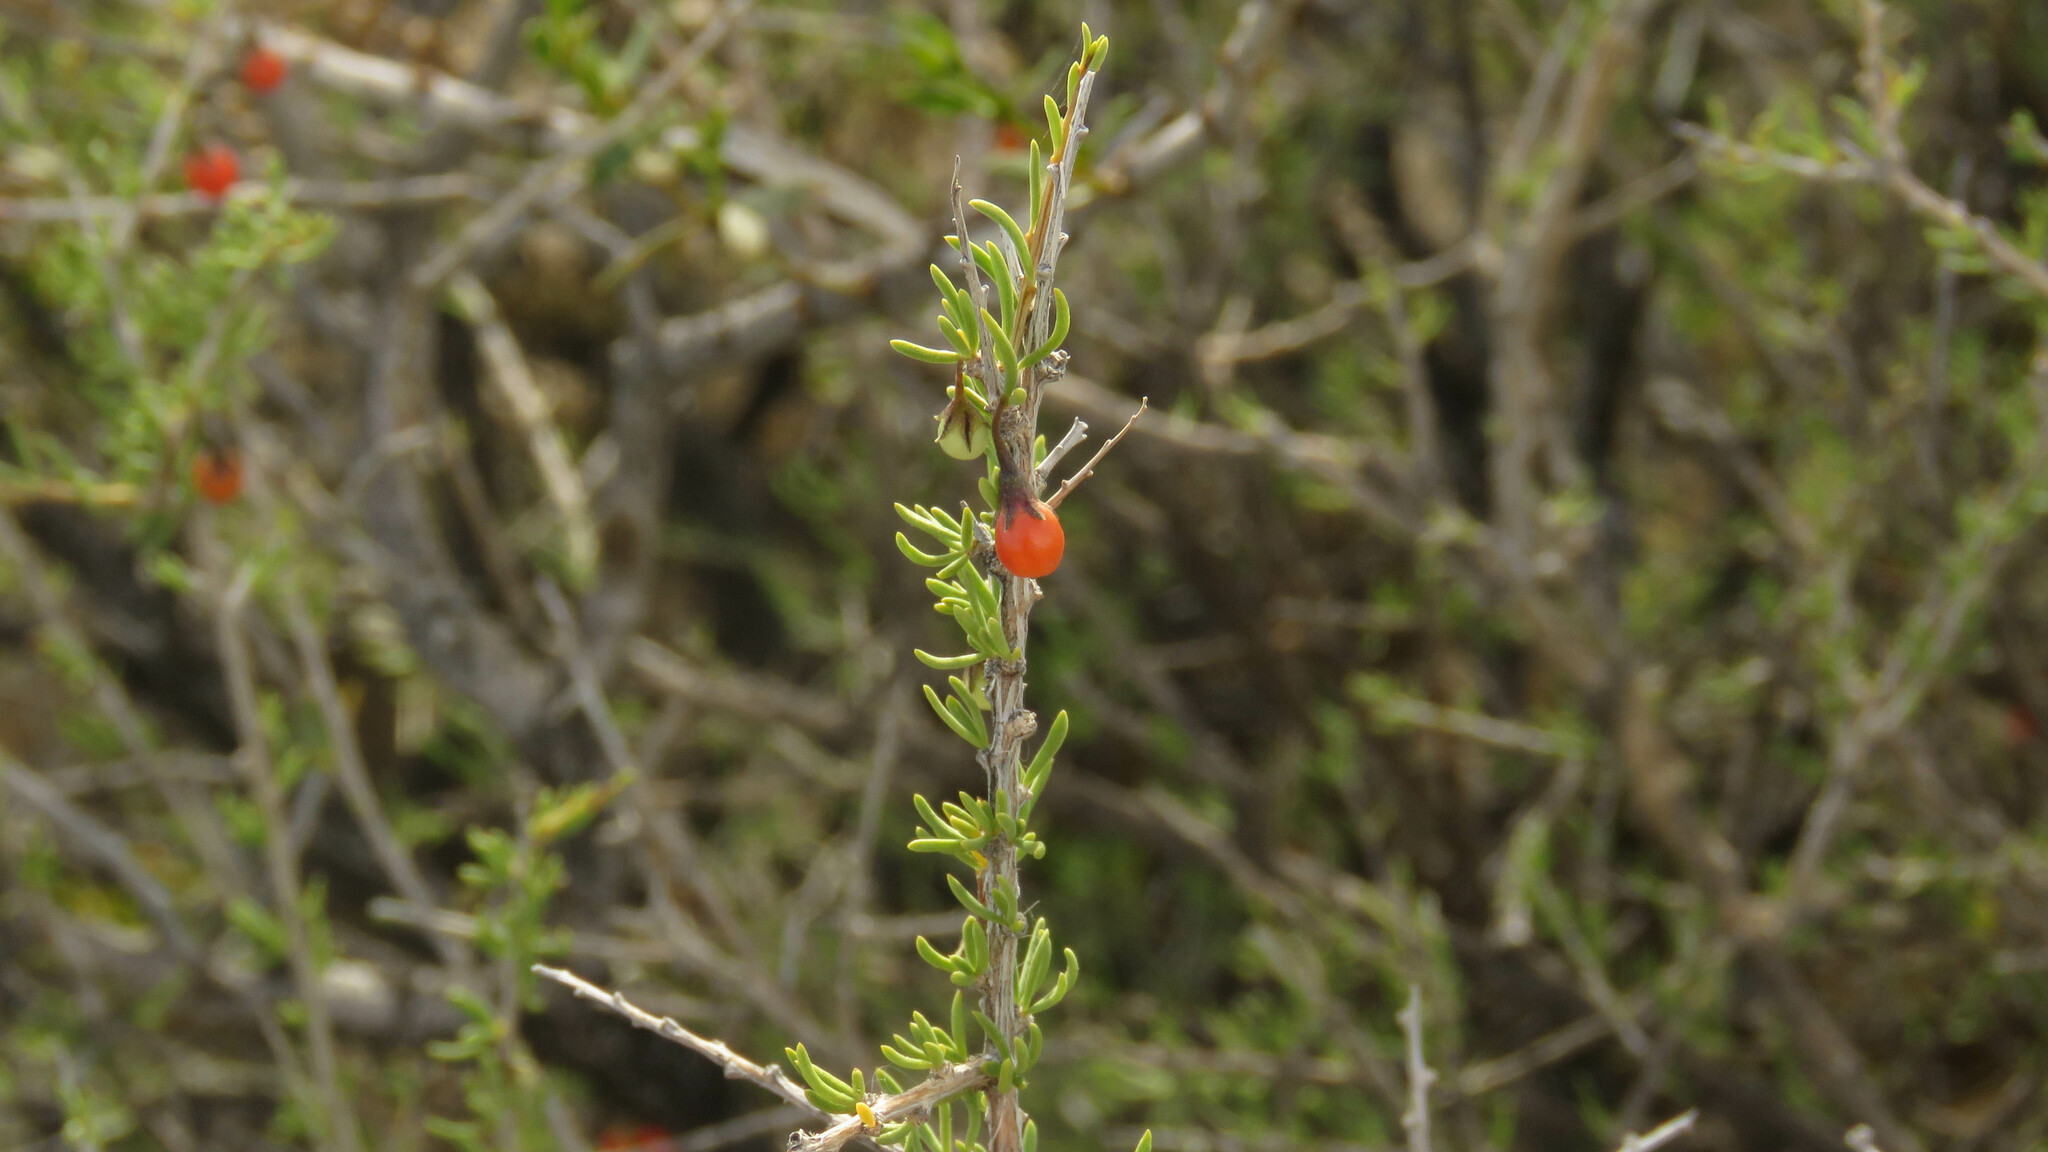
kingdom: Plantae
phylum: Tracheophyta
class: Magnoliopsida
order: Solanales
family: Solanaceae
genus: Lycium
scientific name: Lycium chilense
